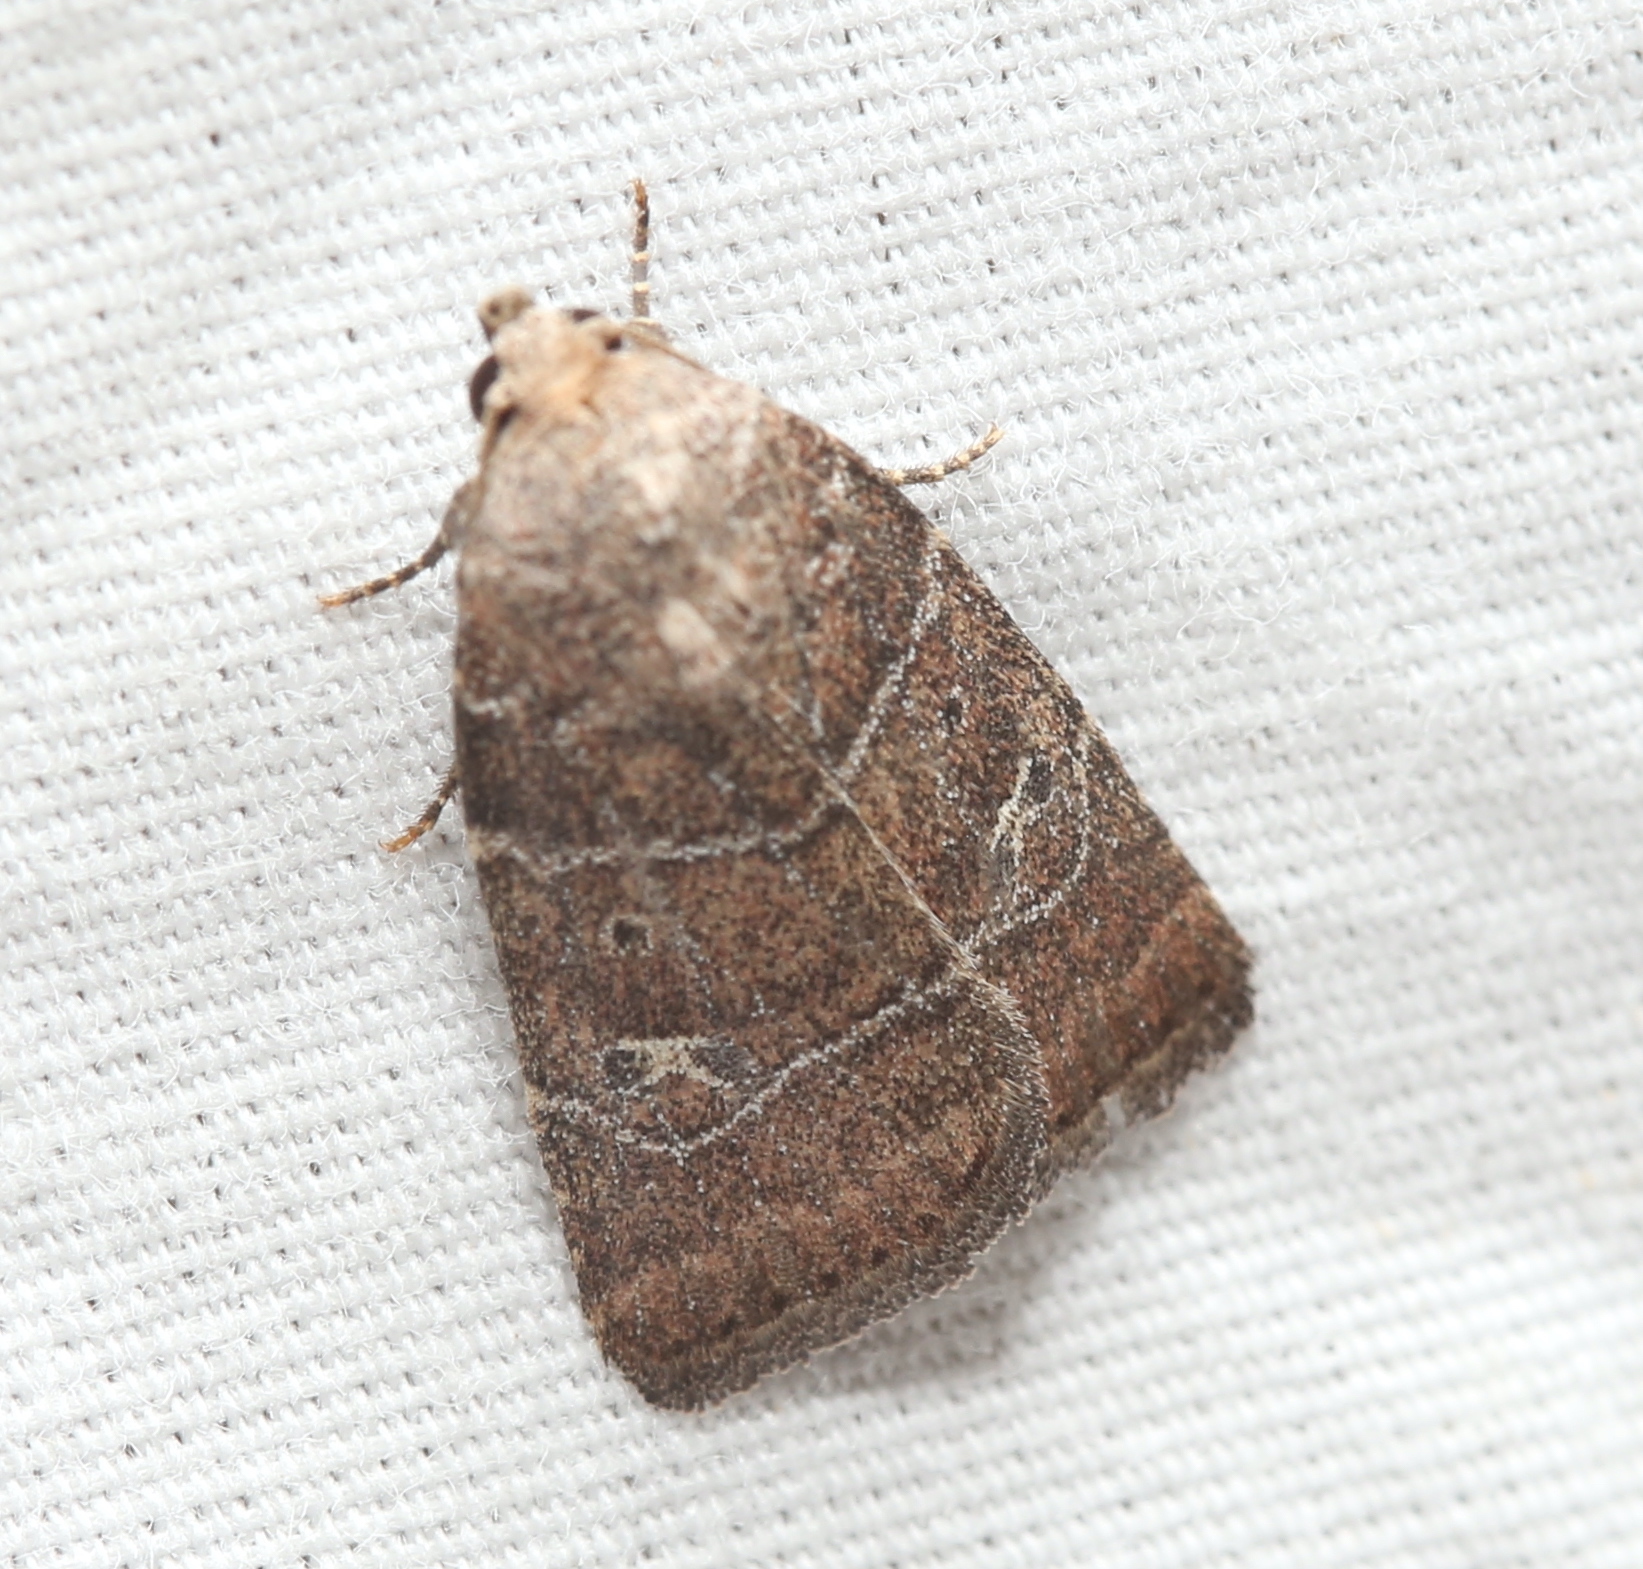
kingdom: Animalia
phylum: Arthropoda
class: Insecta
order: Lepidoptera
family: Noctuidae
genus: Elaphria
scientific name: Elaphria grata
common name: Grateful midget moth
